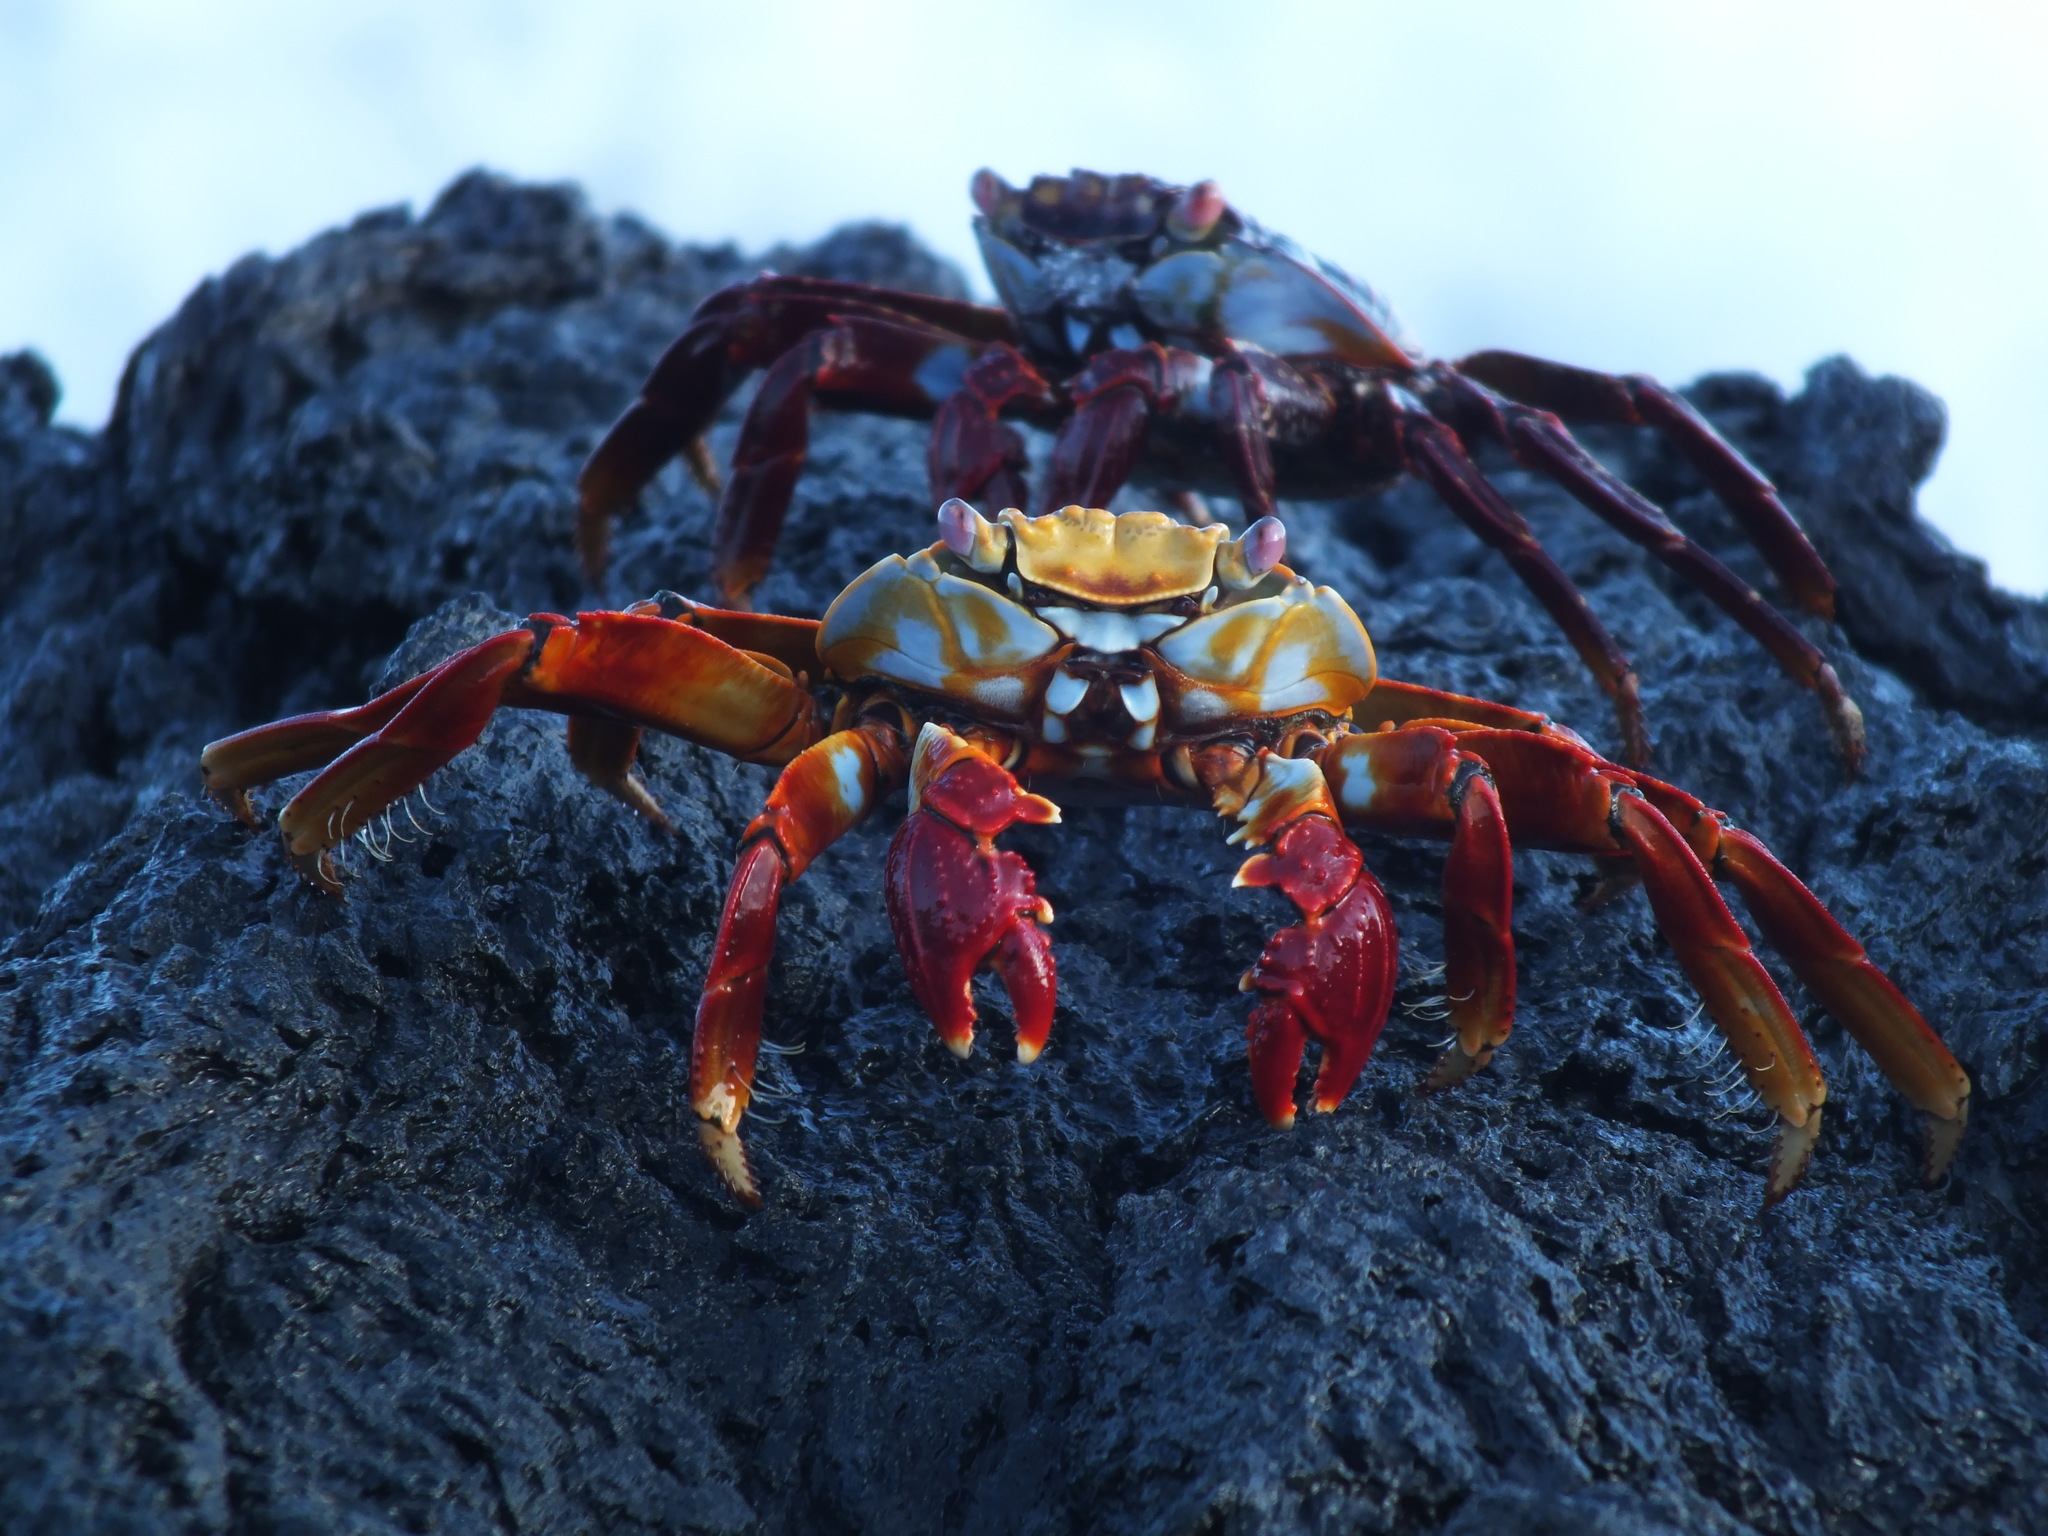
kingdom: Animalia
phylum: Arthropoda
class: Malacostraca
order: Decapoda
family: Grapsidae
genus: Grapsus
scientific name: Grapsus grapsus
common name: Sally lightfoot
